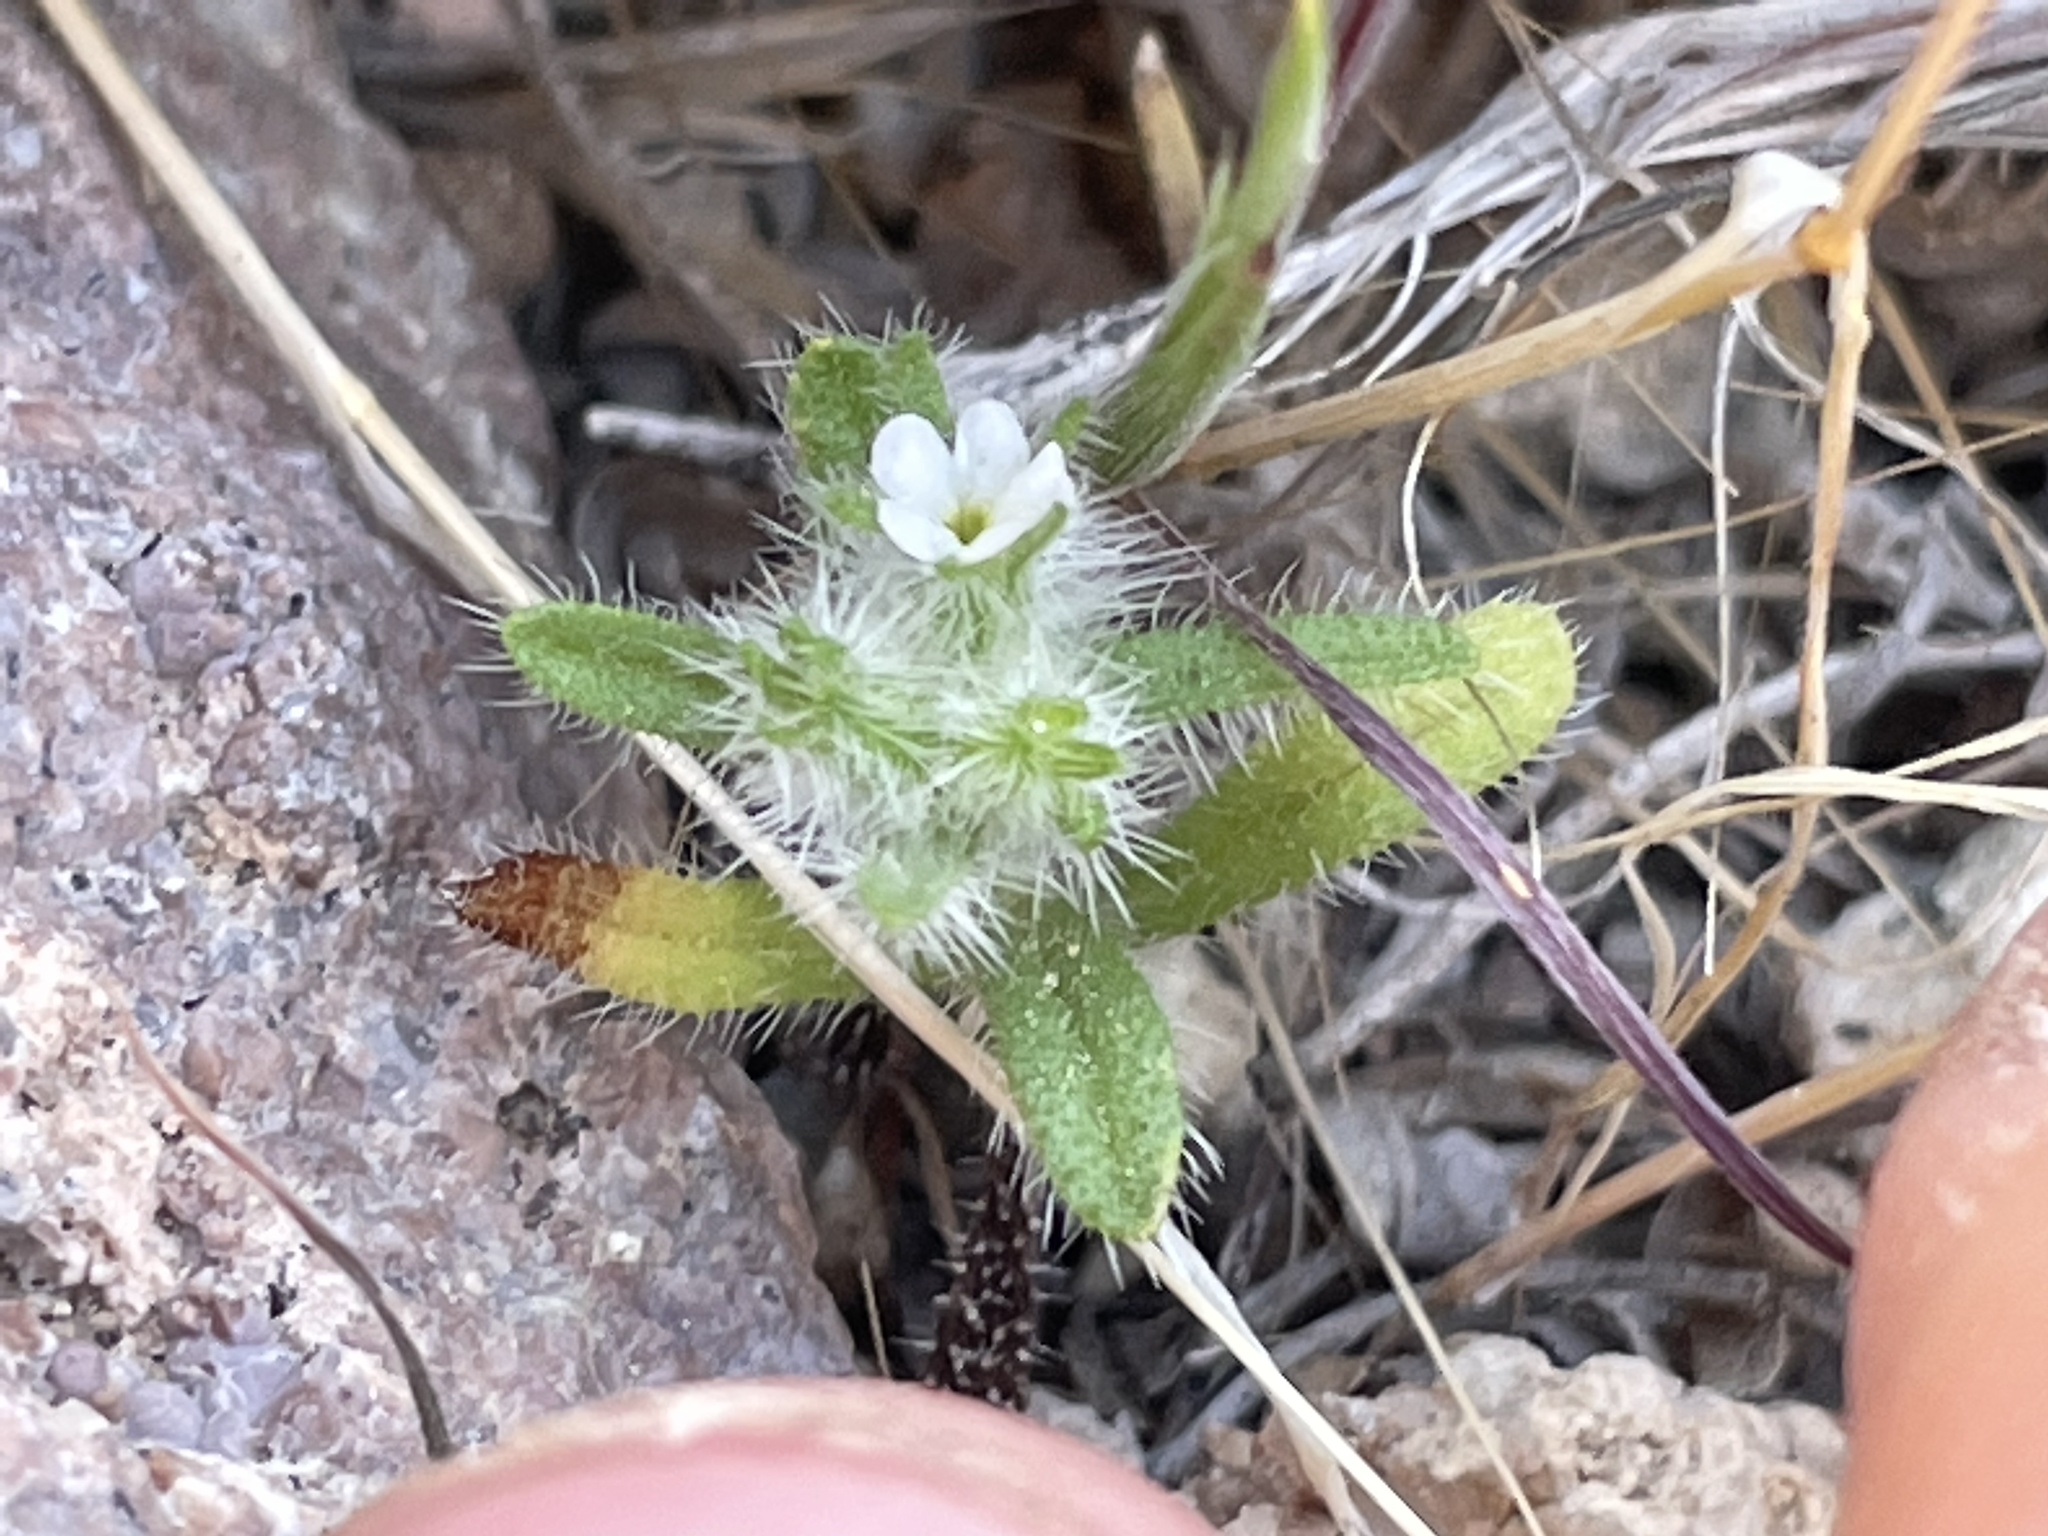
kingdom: Plantae
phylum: Tracheophyta
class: Magnoliopsida
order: Boraginales
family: Boraginaceae
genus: Greeneocharis
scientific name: Greeneocharis circumscissa
